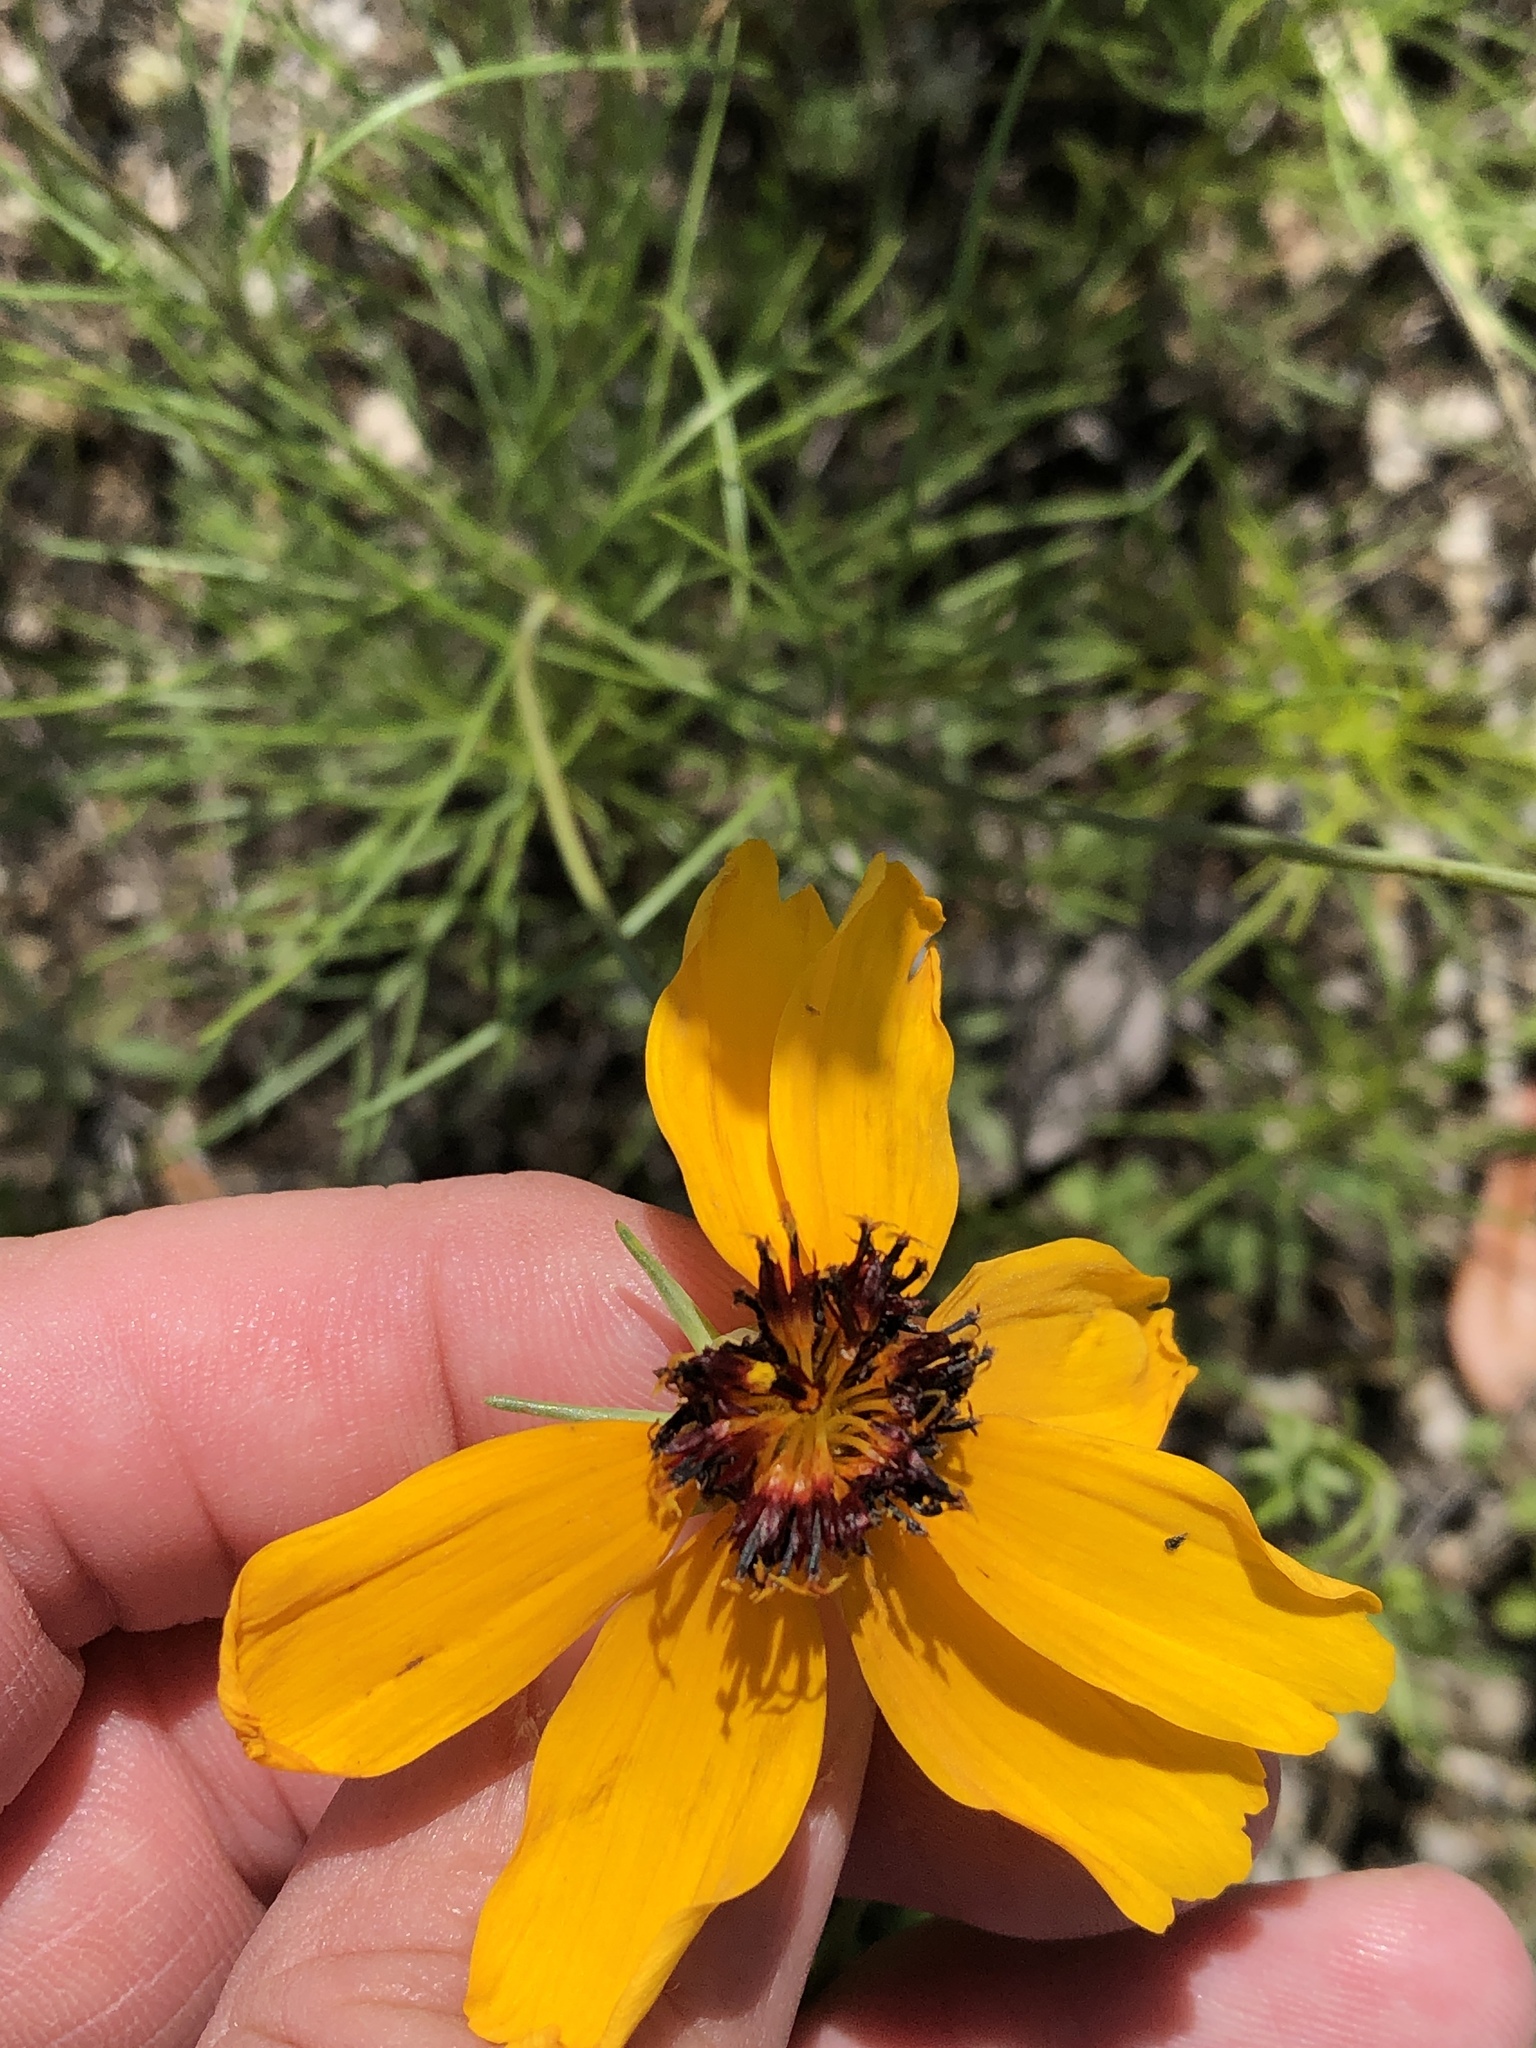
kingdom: Plantae
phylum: Tracheophyta
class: Magnoliopsida
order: Asterales
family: Asteraceae
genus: Thelesperma
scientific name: Thelesperma filifolium
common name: Stiff greenthread
